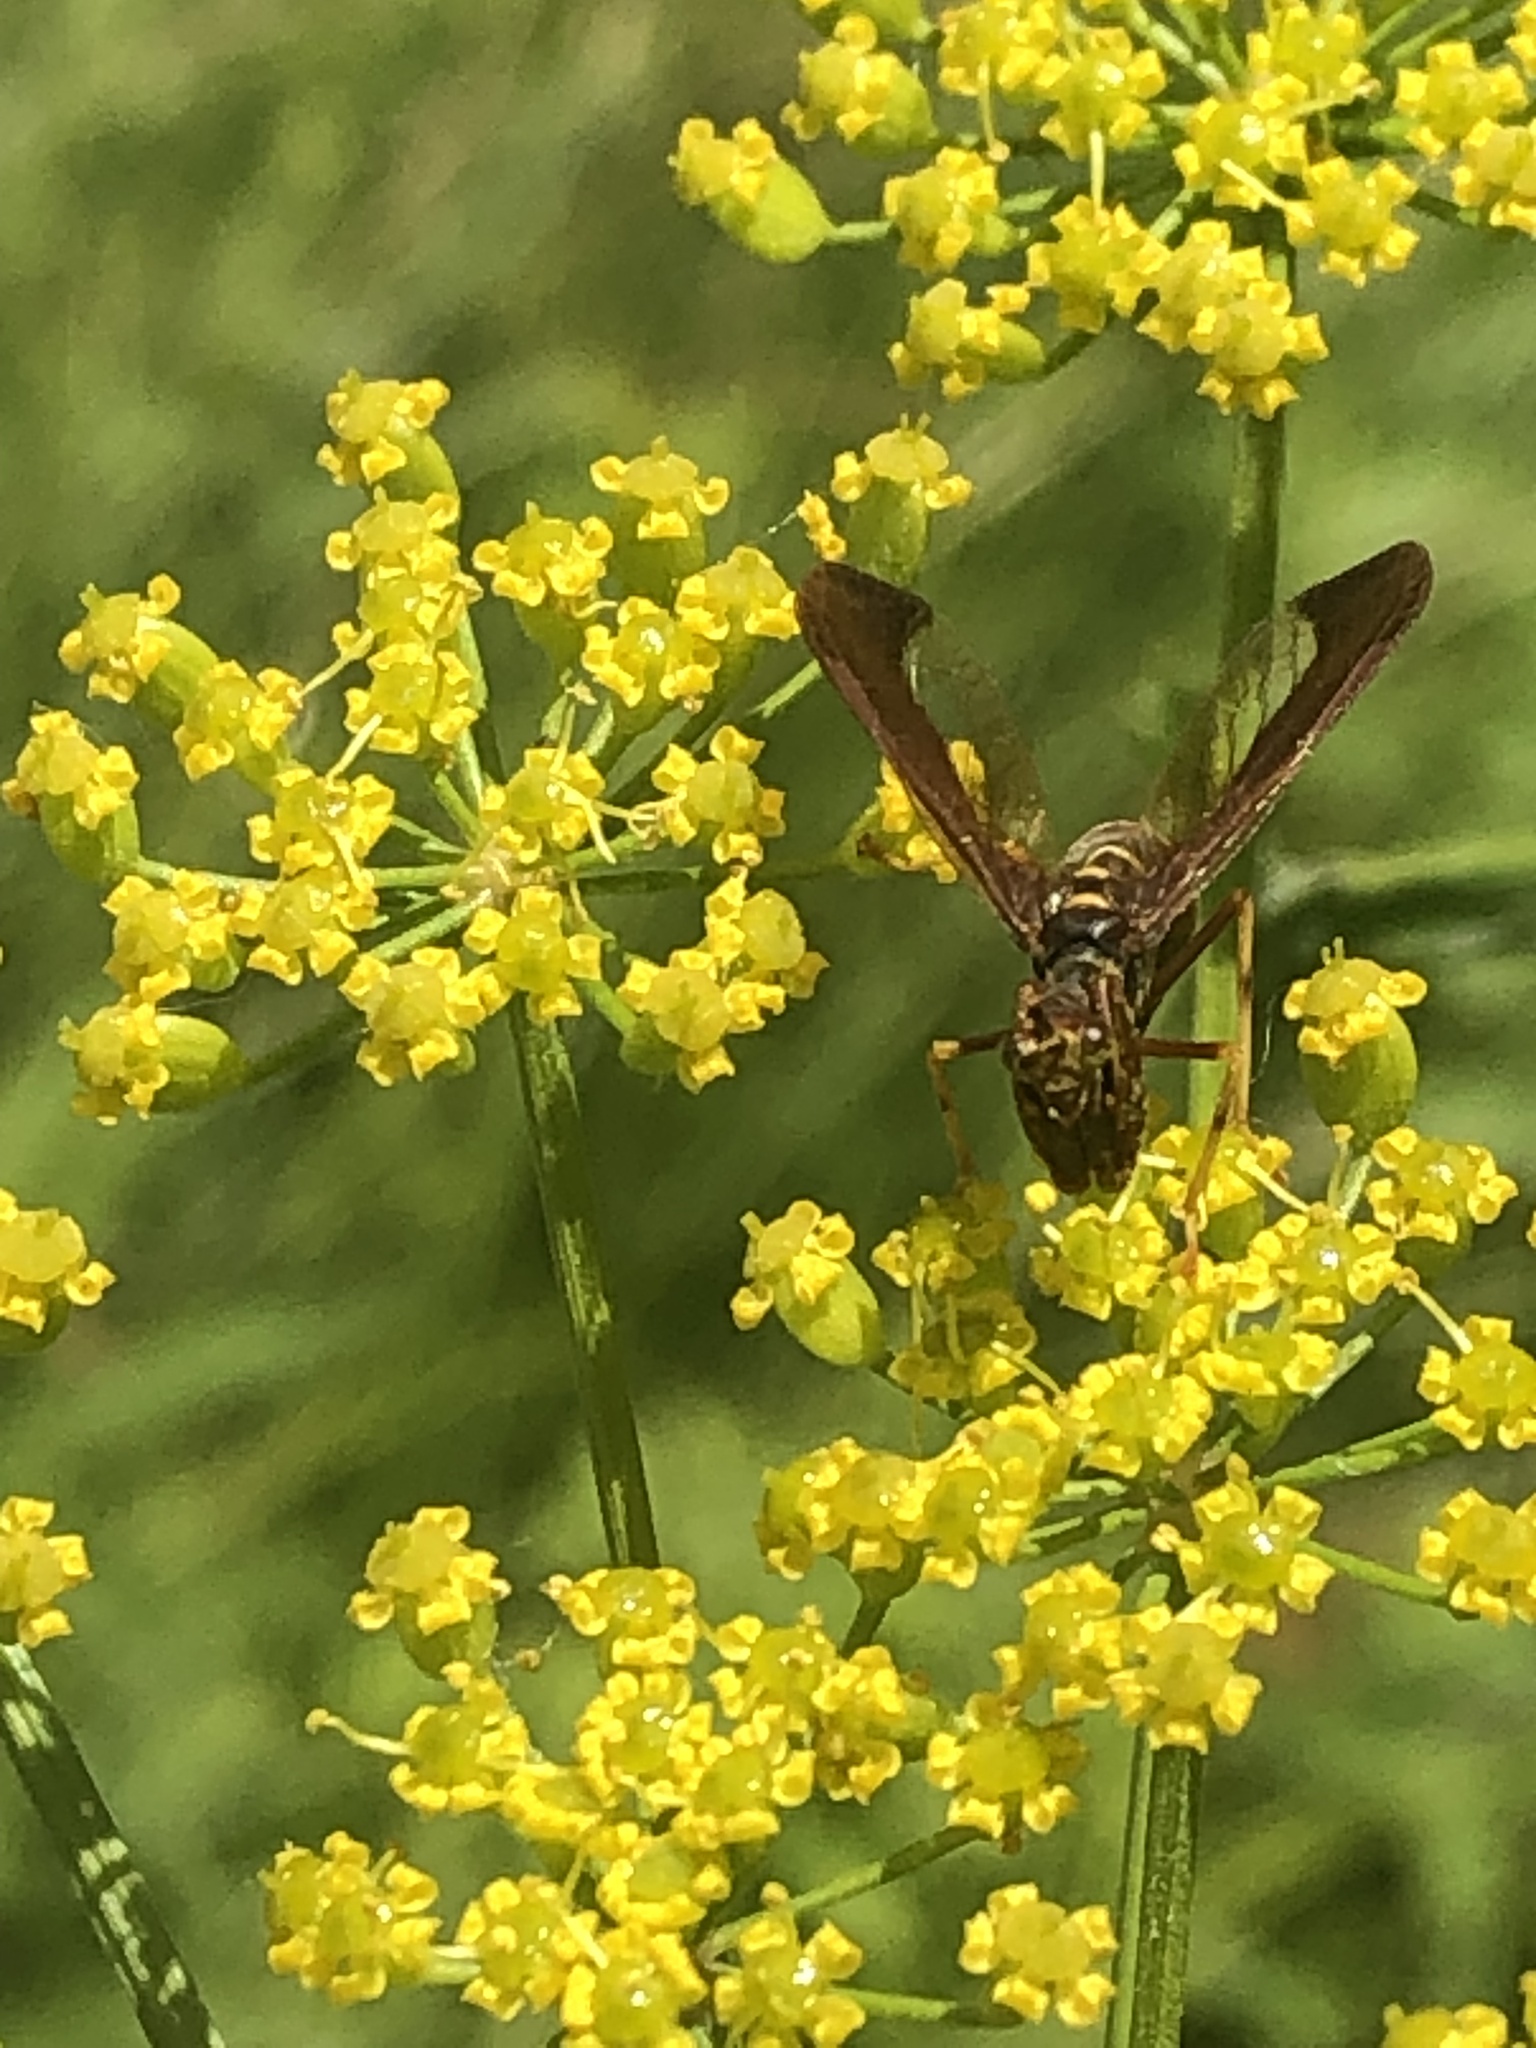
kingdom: Animalia
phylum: Arthropoda
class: Insecta
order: Neuroptera
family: Mantispidae
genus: Climaciella
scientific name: Climaciella brunnea
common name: Brown wasp mantidfly
